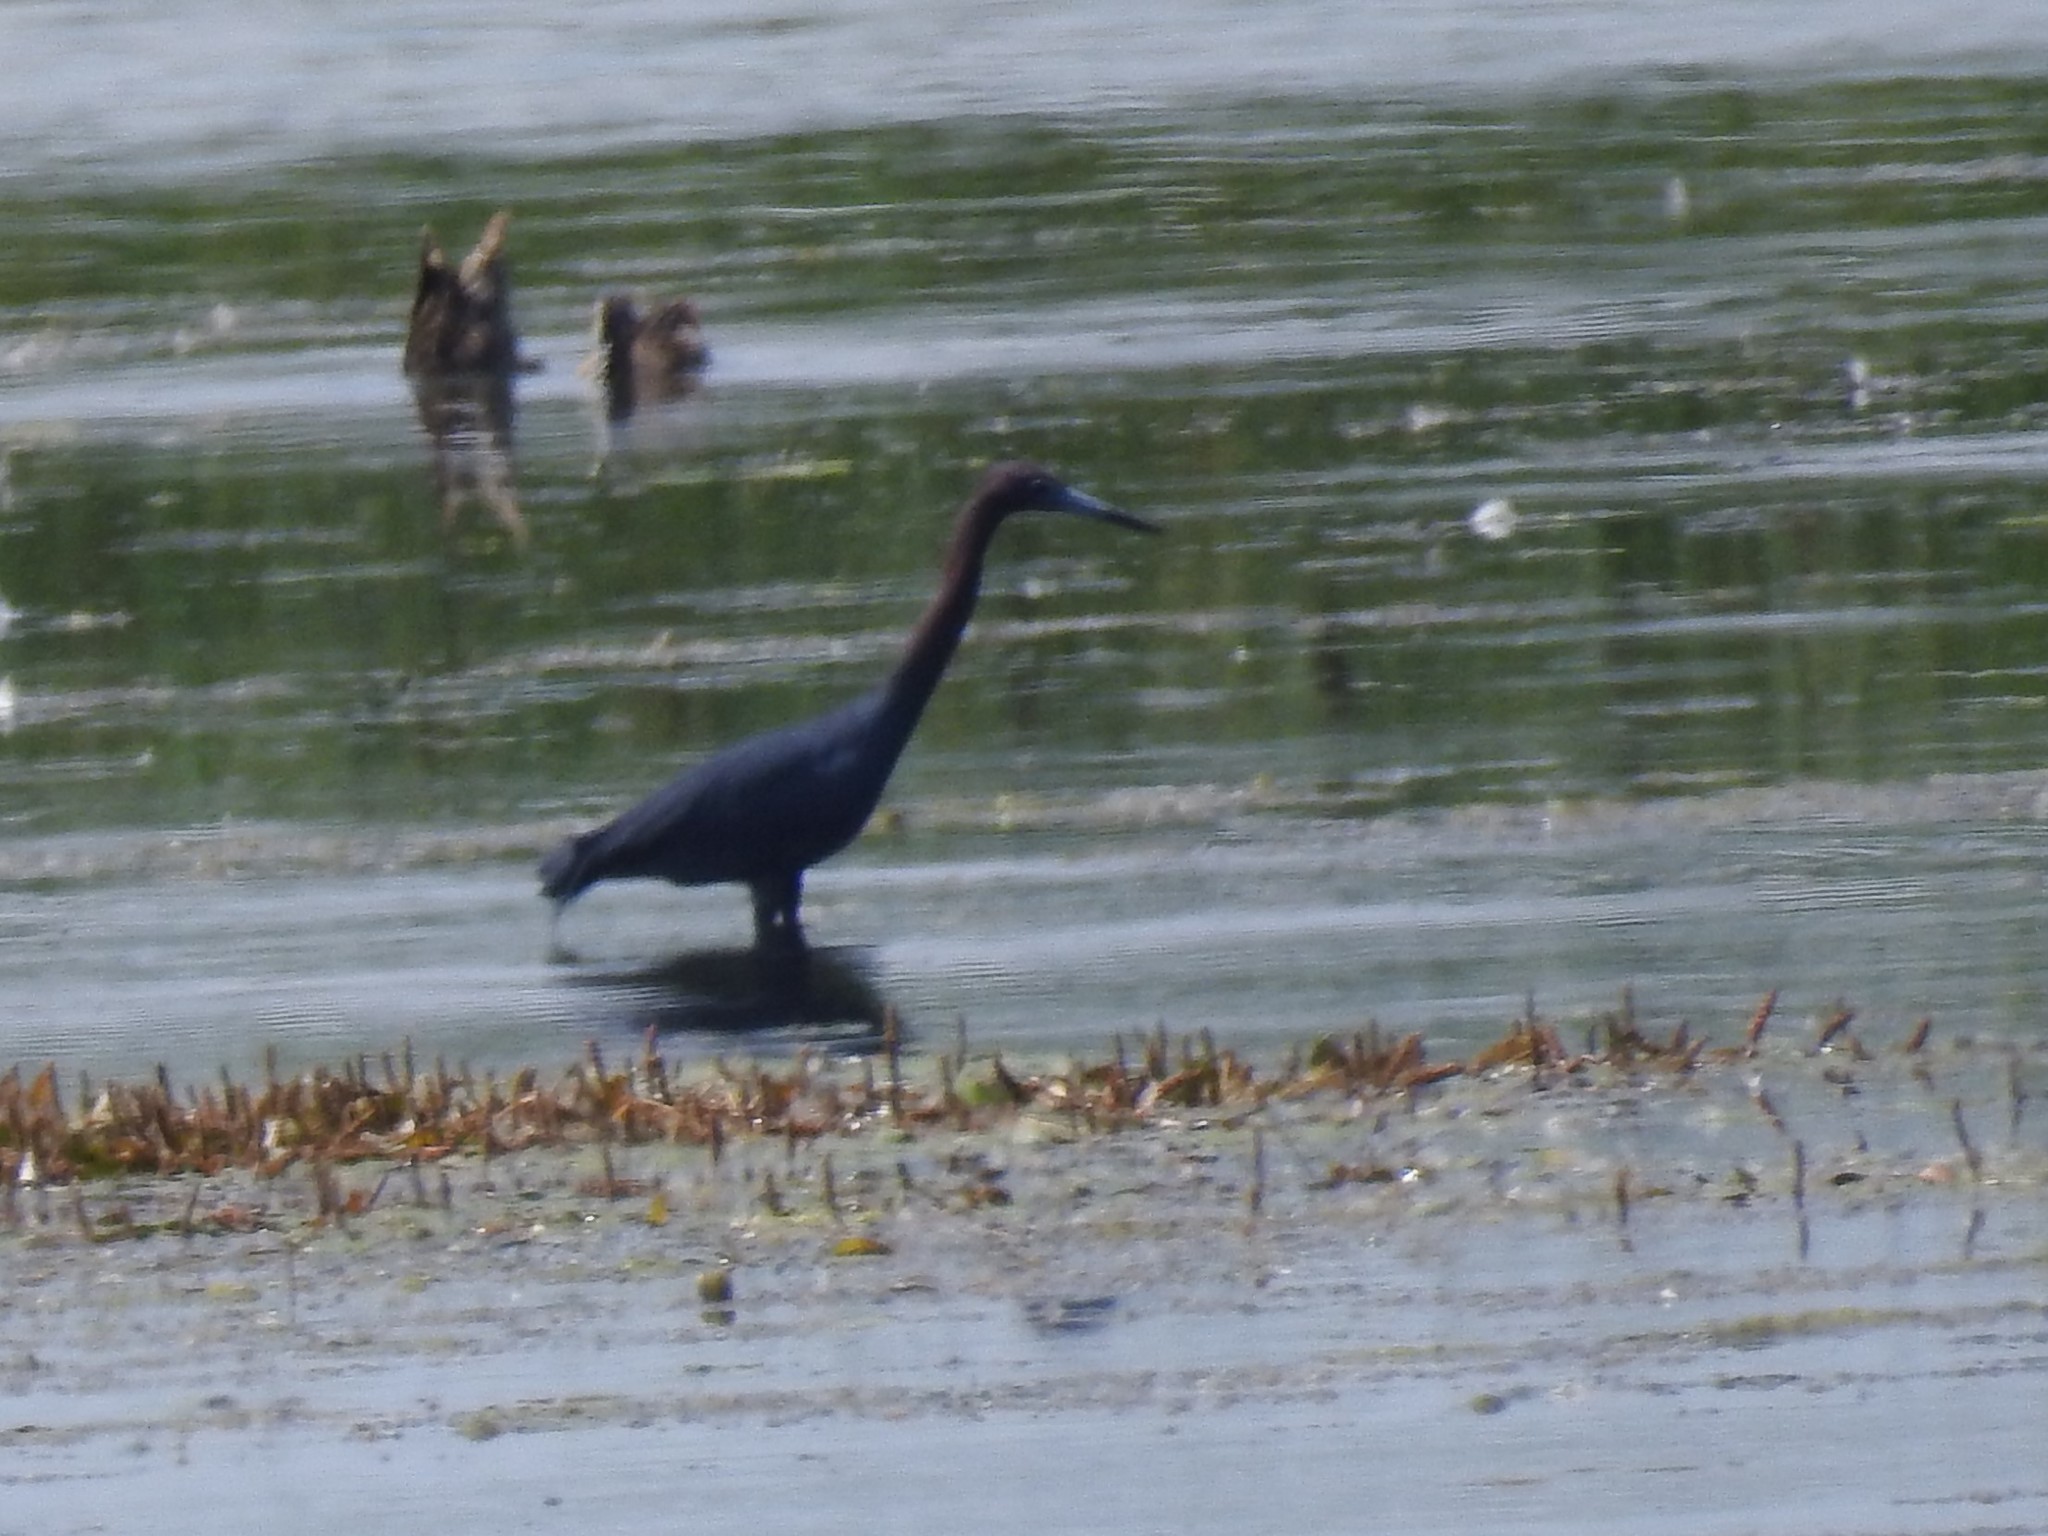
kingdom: Animalia
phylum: Chordata
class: Aves
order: Pelecaniformes
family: Ardeidae
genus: Egretta
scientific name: Egretta caerulea
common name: Little blue heron
